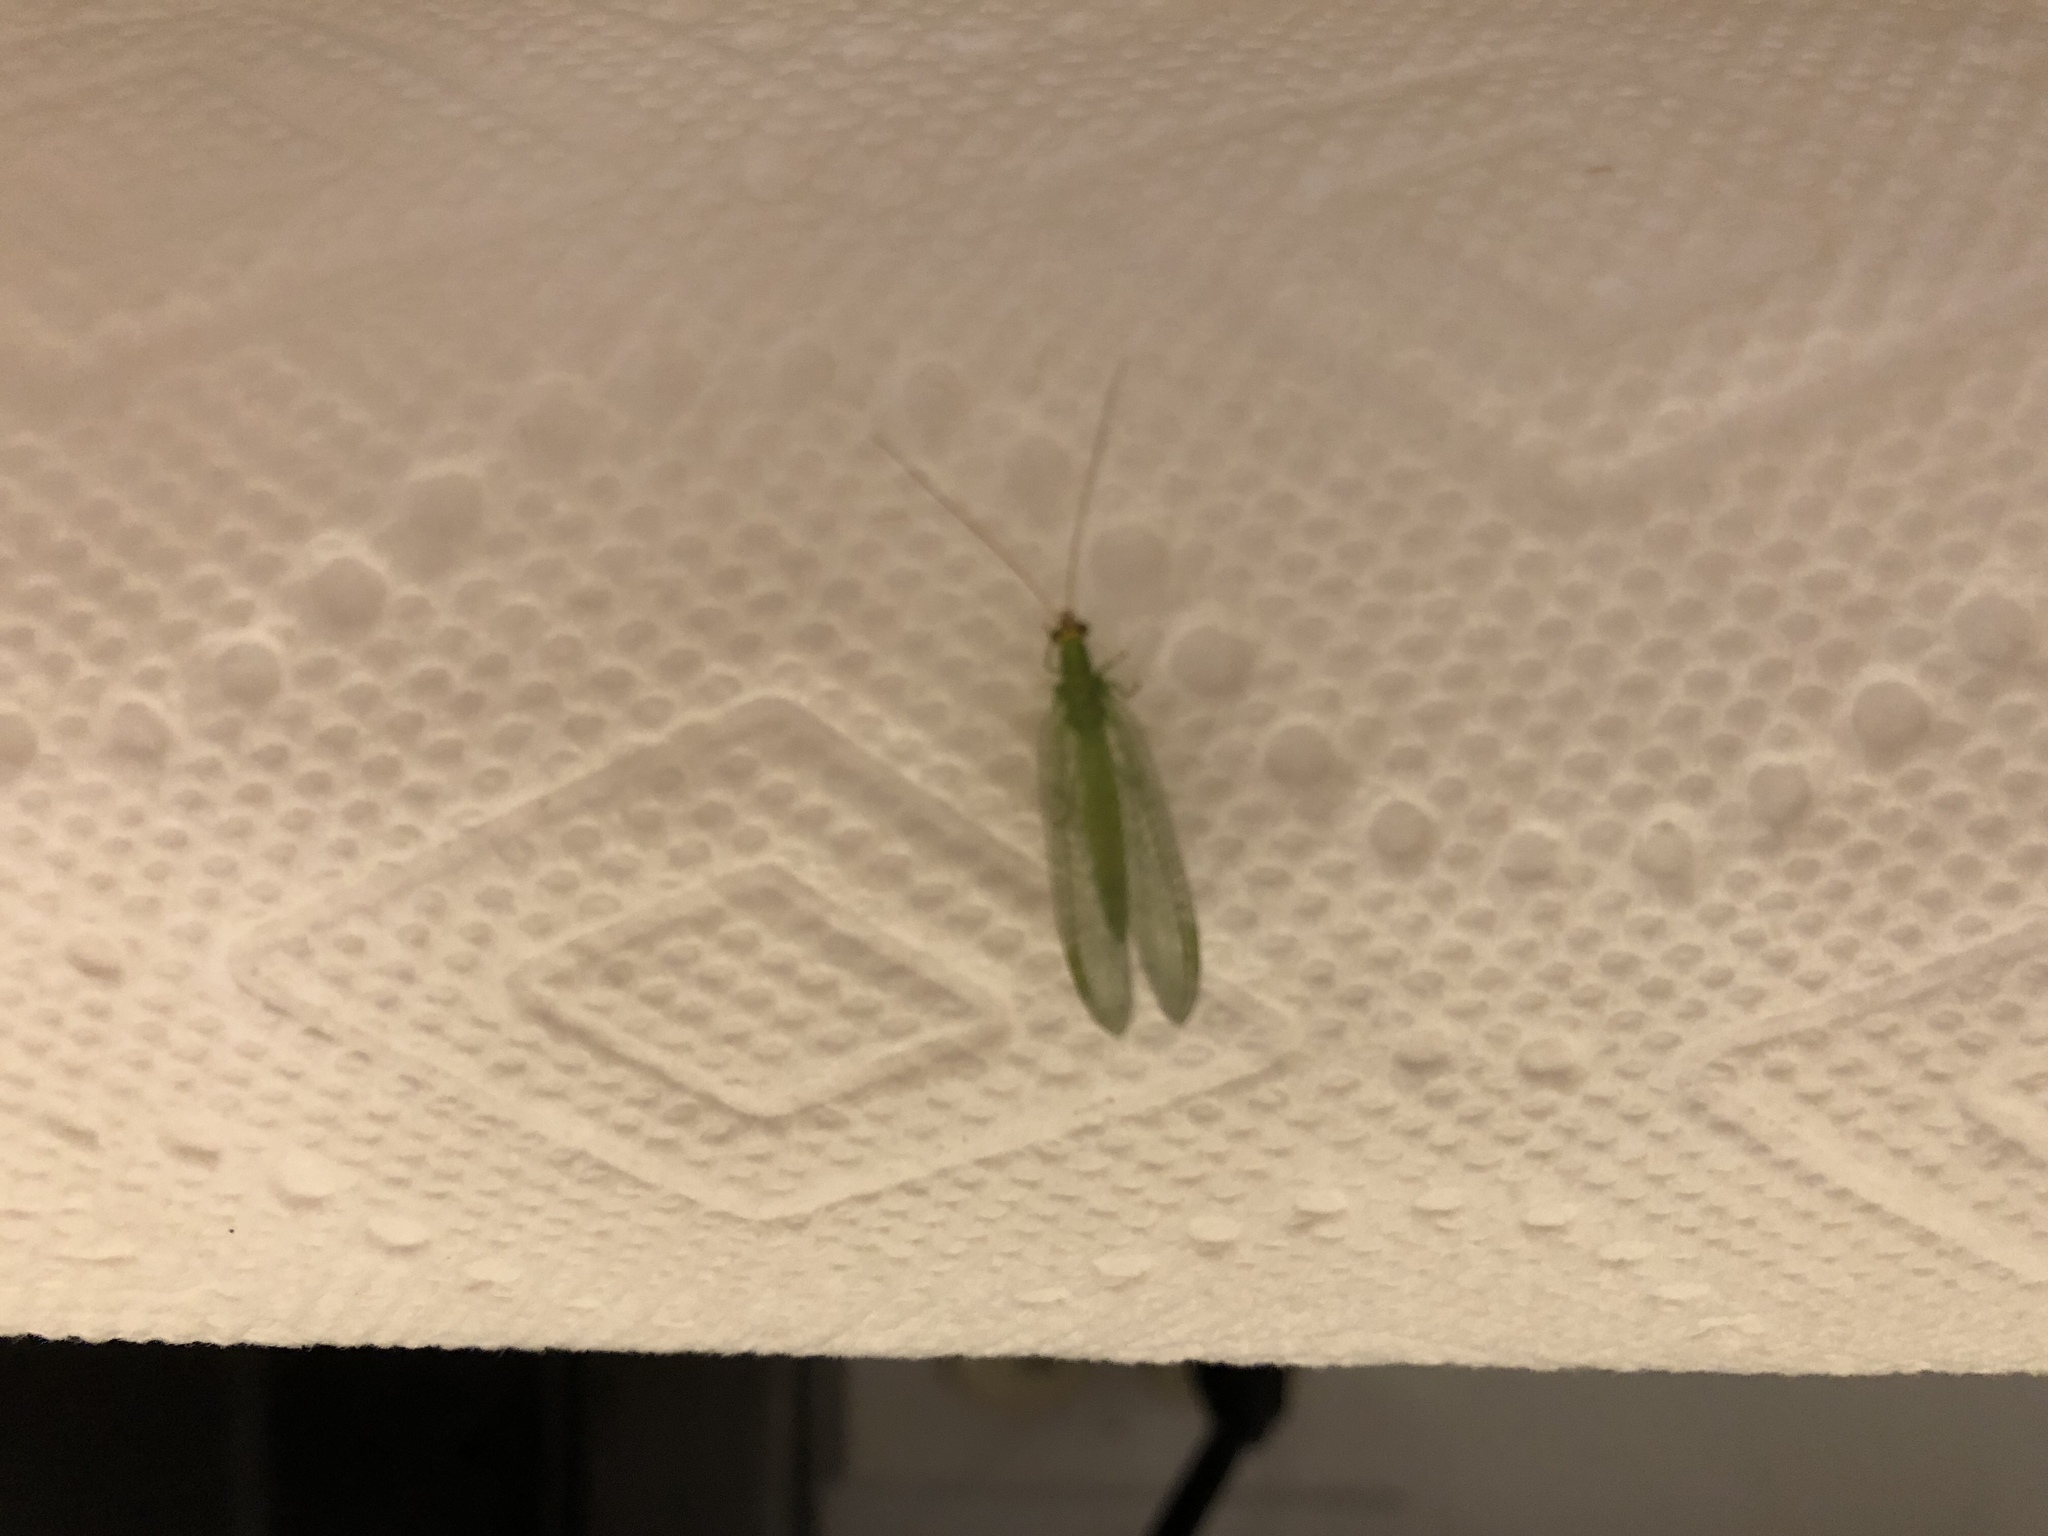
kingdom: Animalia
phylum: Arthropoda
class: Insecta
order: Neuroptera
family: Chrysopidae
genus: Chrysopa
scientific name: Chrysopa
